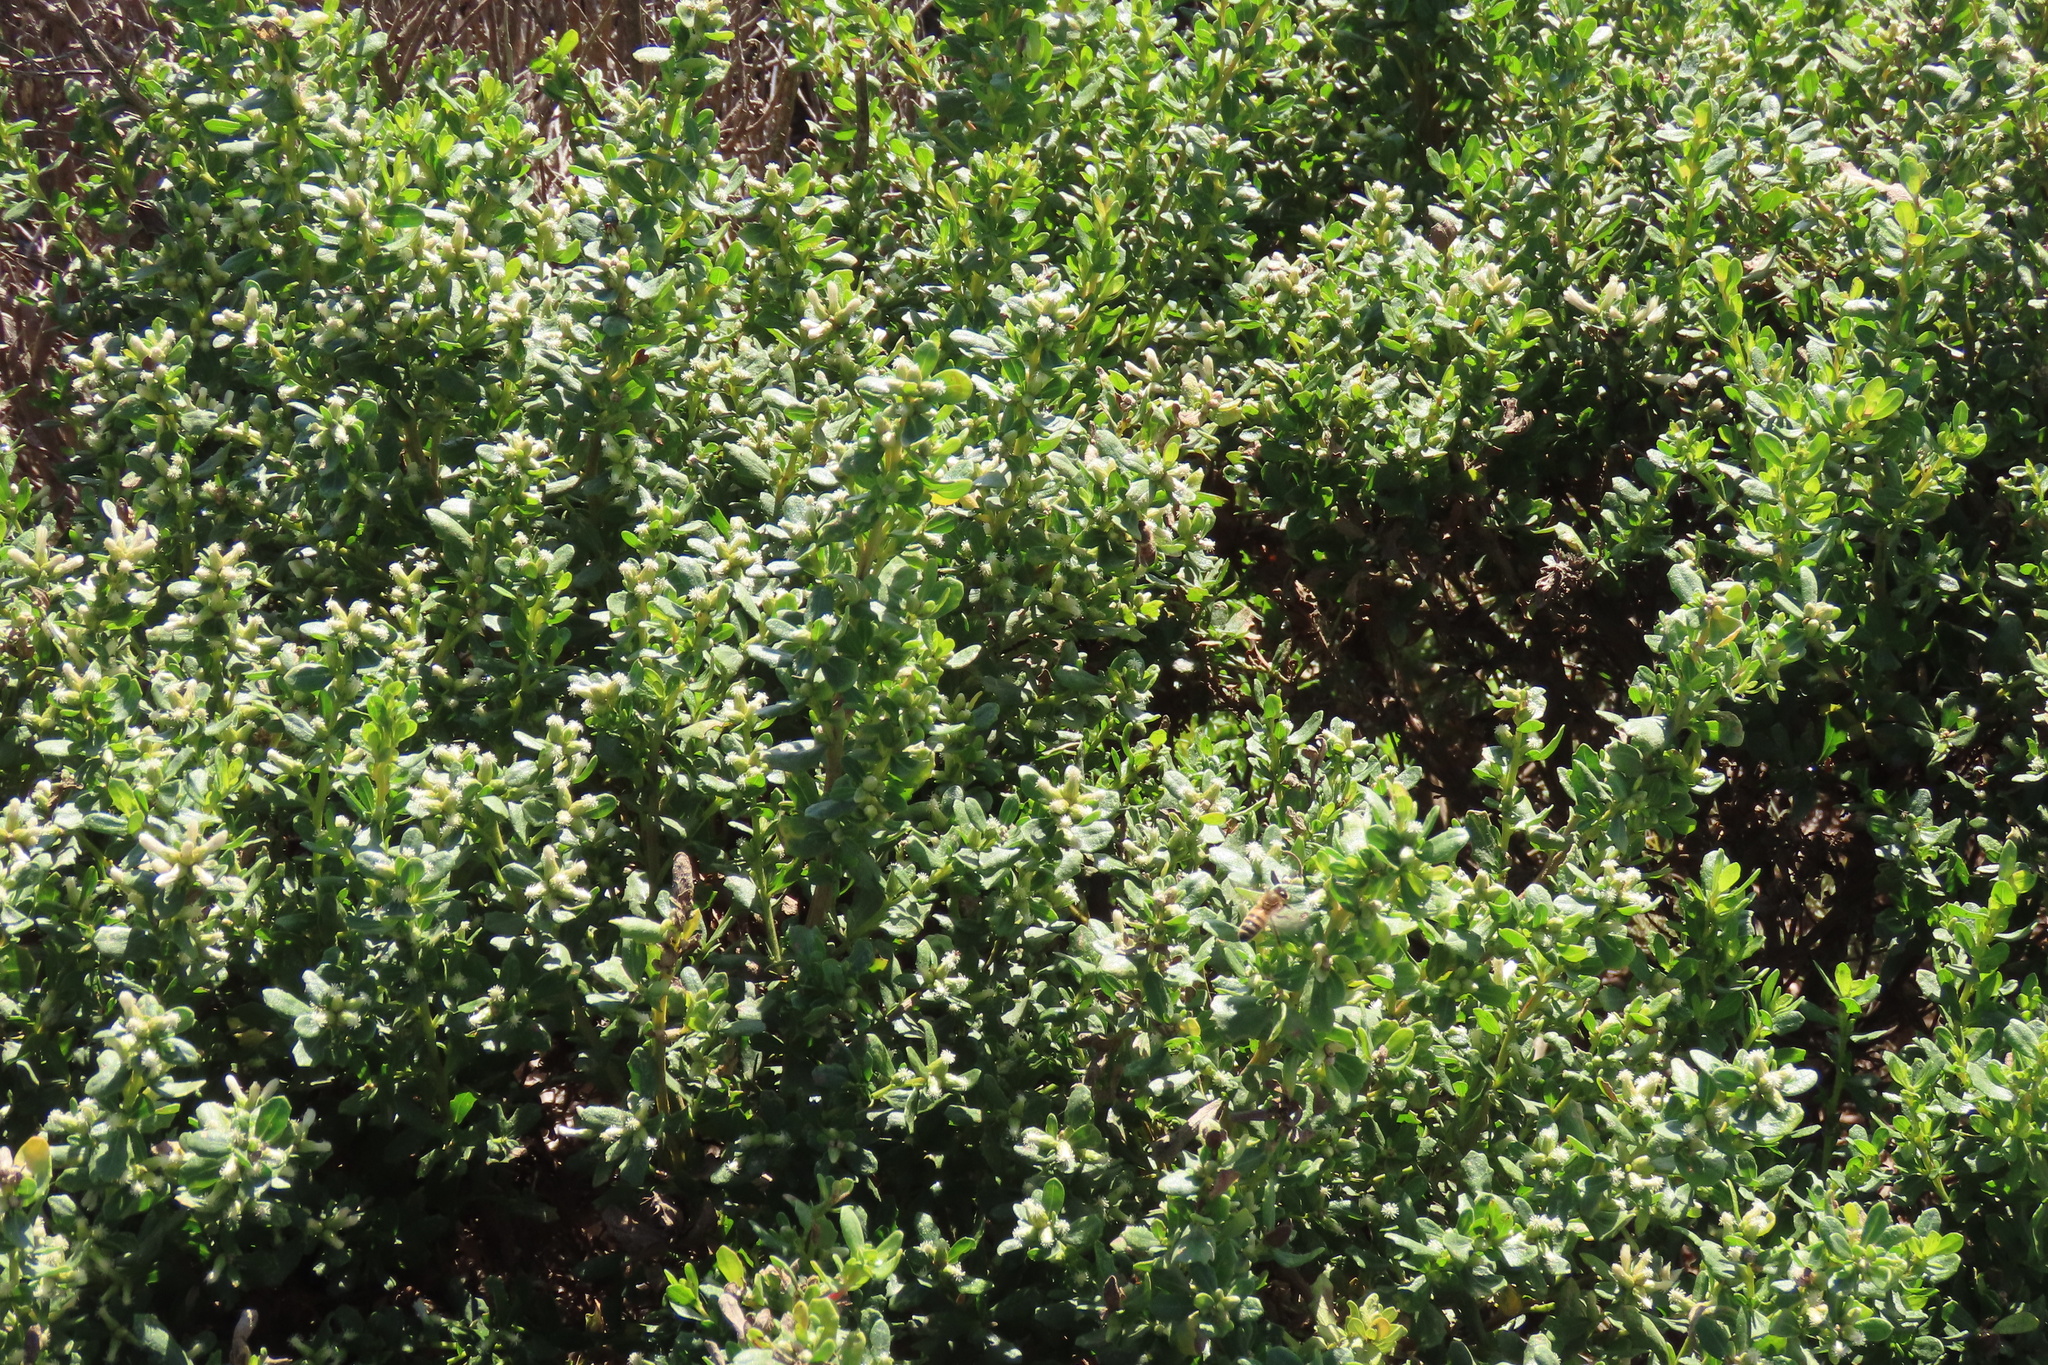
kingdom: Plantae
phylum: Tracheophyta
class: Magnoliopsida
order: Asterales
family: Asteraceae
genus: Baccharis
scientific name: Baccharis pilularis
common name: Coyotebrush
